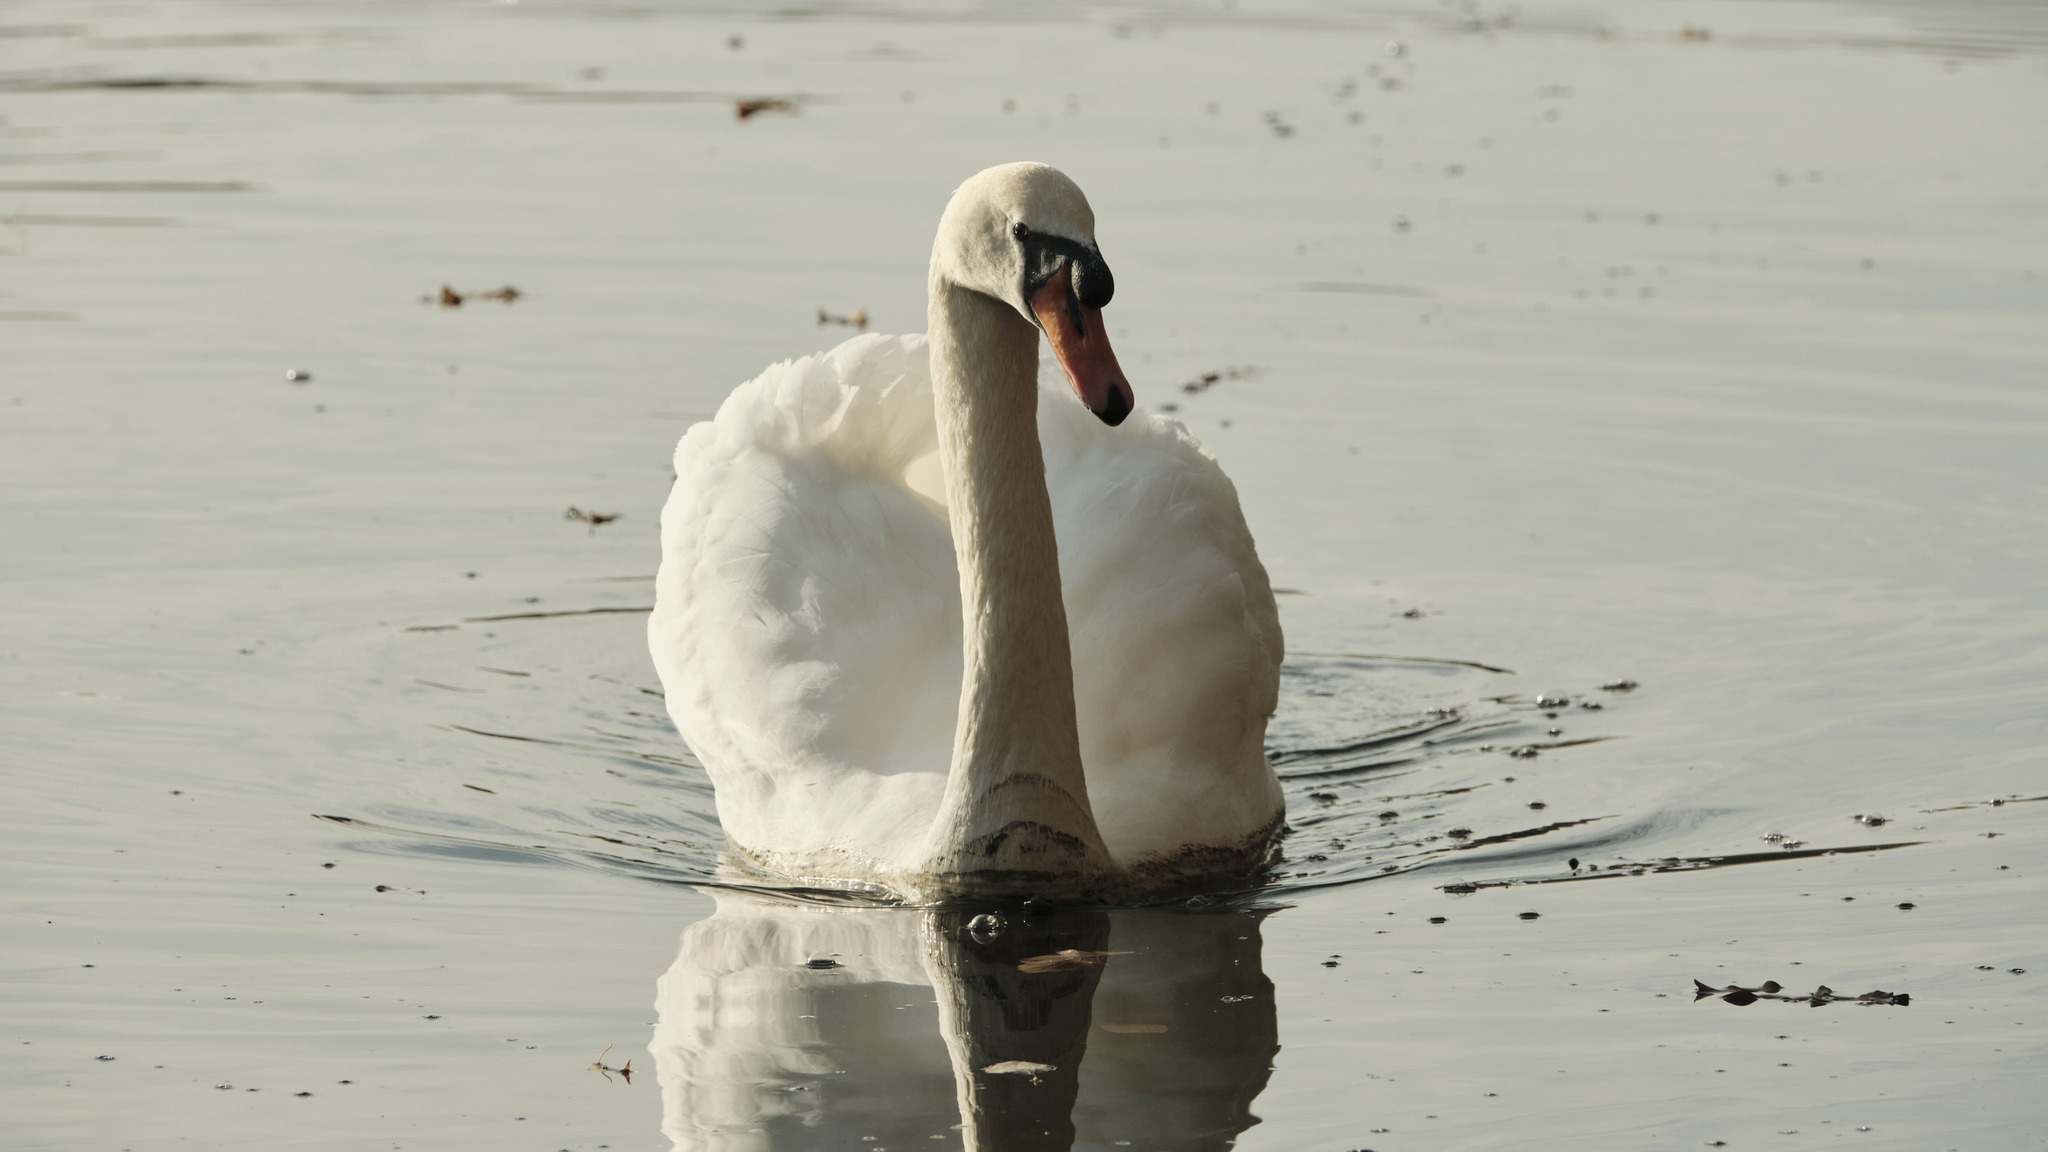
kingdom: Animalia
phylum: Chordata
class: Aves
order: Anseriformes
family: Anatidae
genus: Cygnus
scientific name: Cygnus olor
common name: Mute swan
